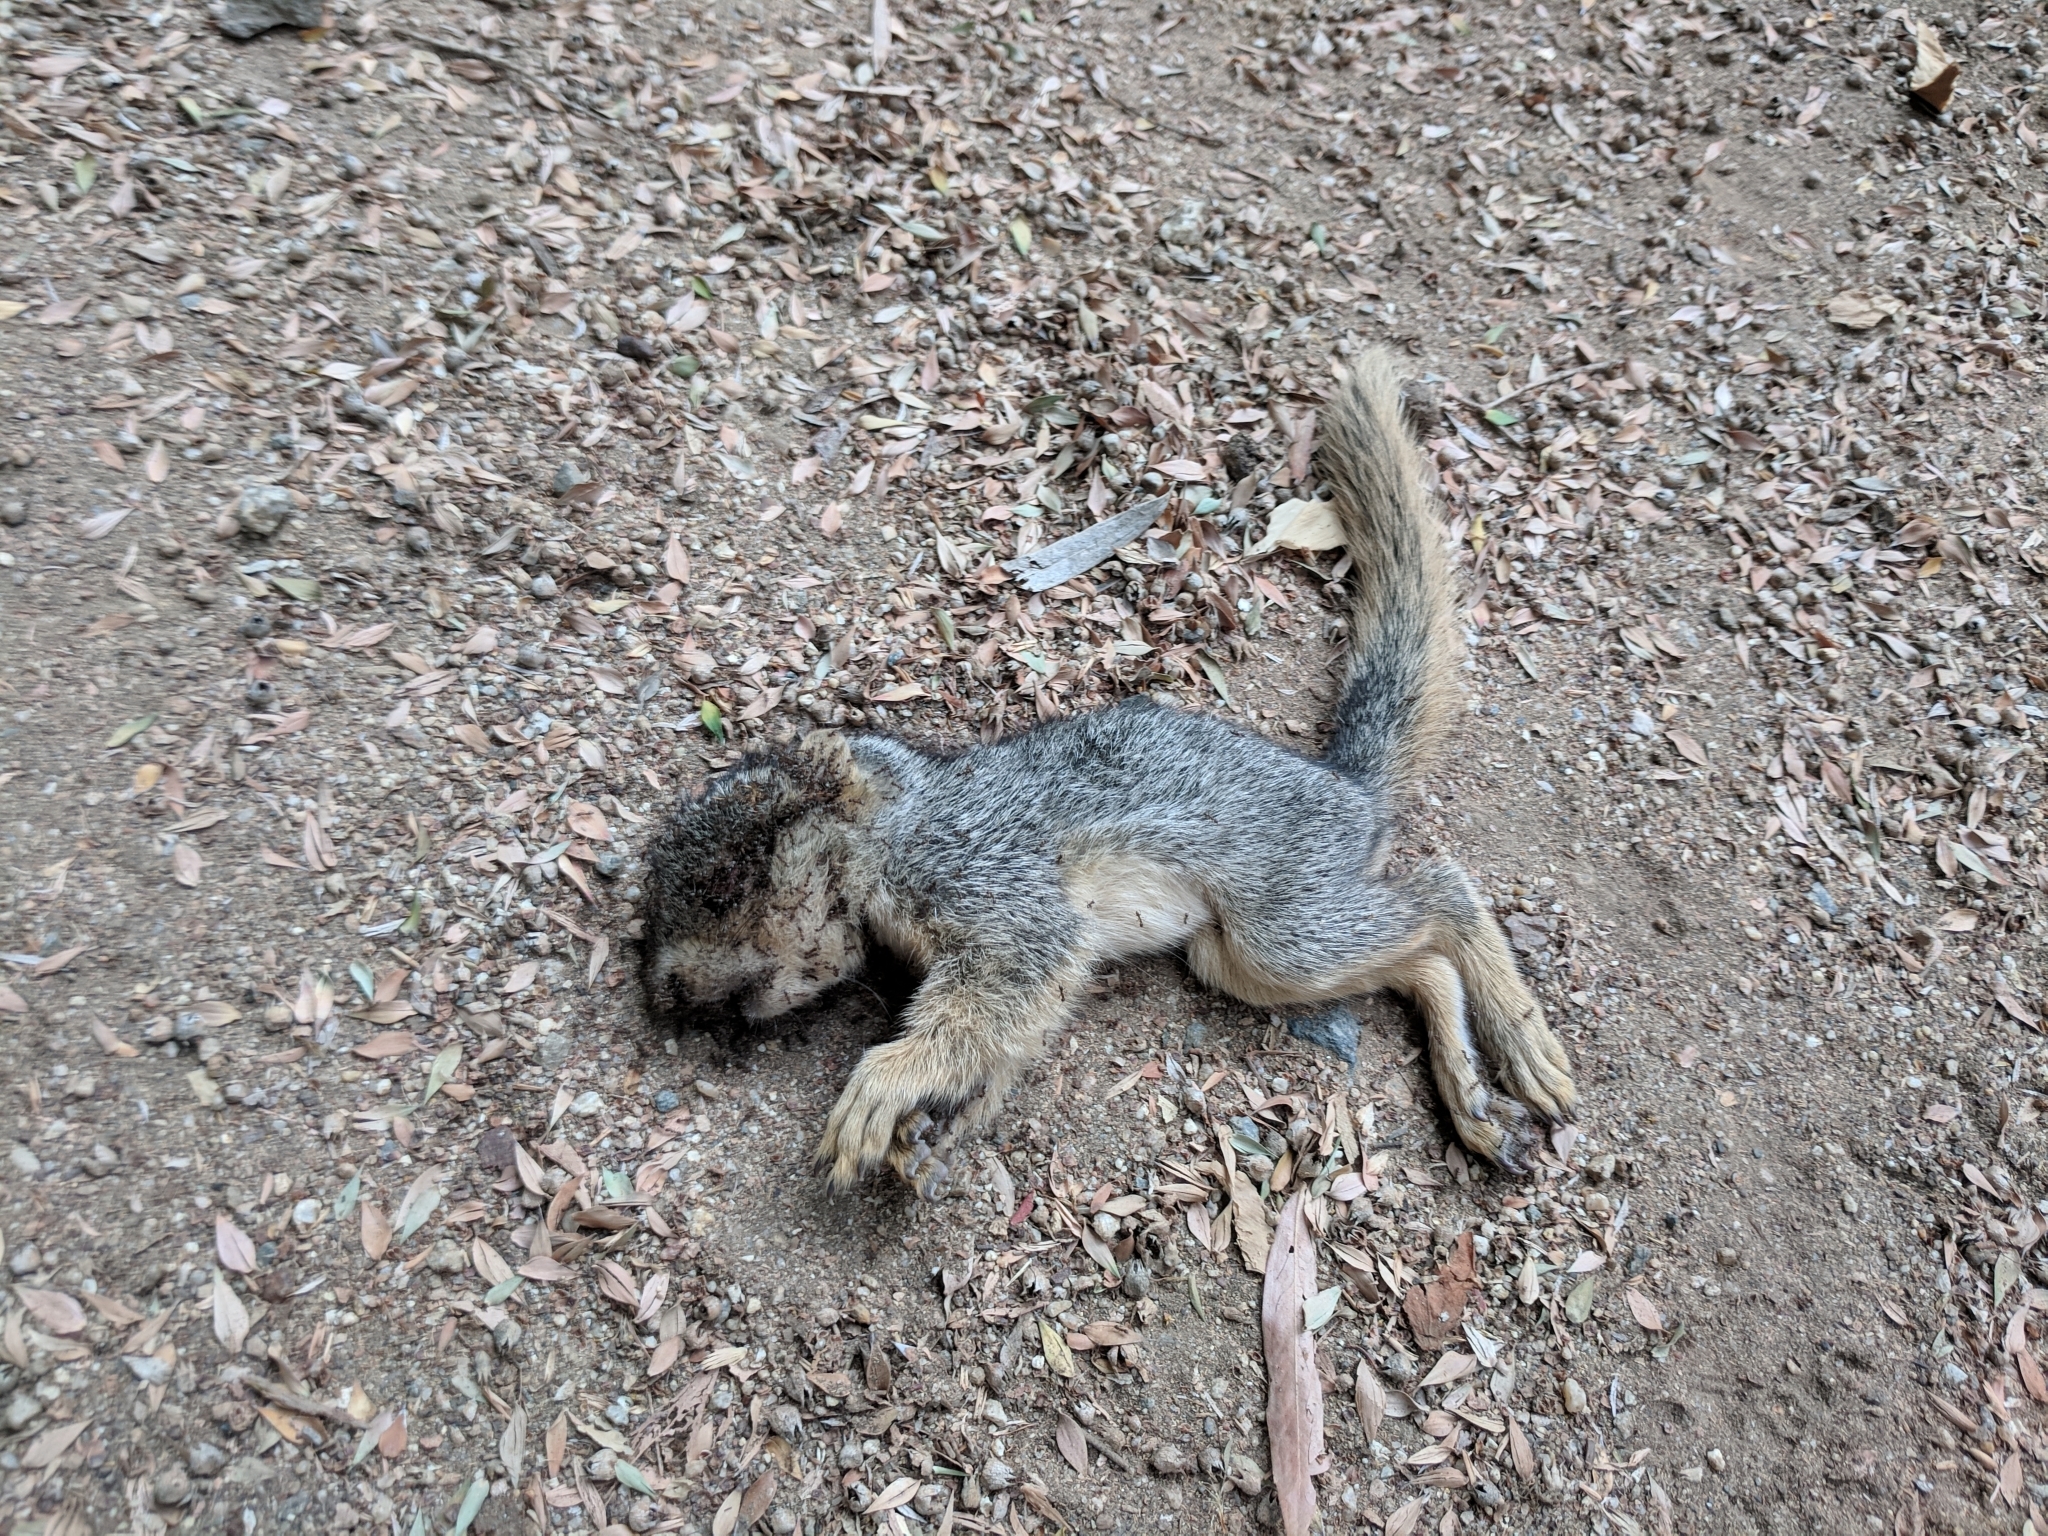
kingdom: Animalia
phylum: Chordata
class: Mammalia
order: Rodentia
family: Sciuridae
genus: Sciurus
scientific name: Sciurus niger
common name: Fox squirrel
